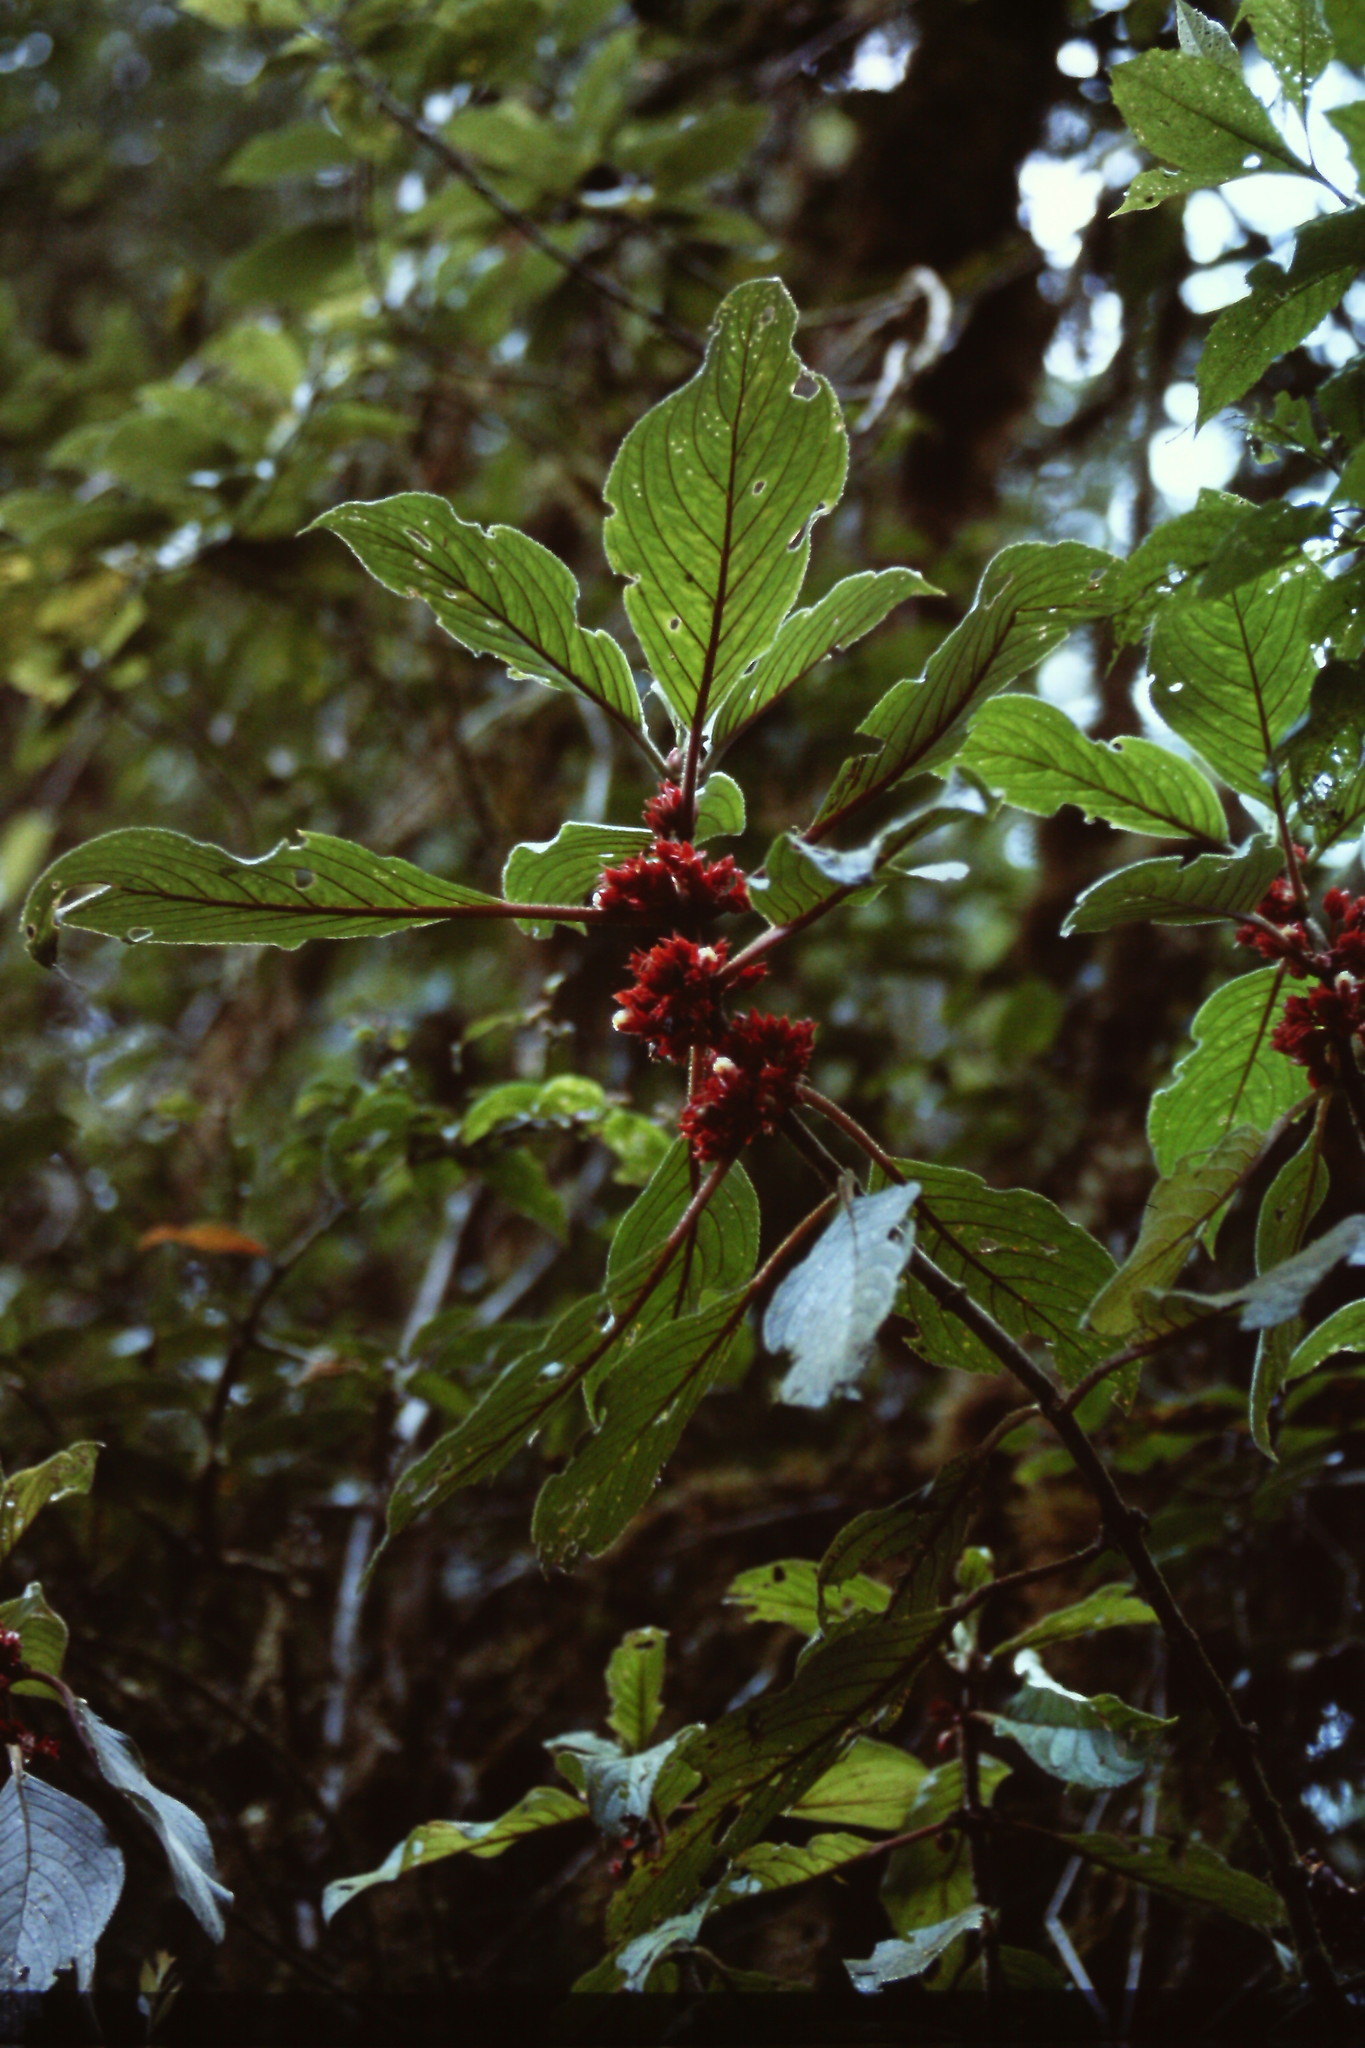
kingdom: Plantae
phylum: Tracheophyta
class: Magnoliopsida
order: Lamiales
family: Gesneriaceae
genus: Glossoloma
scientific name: Glossoloma ichthyoderma
